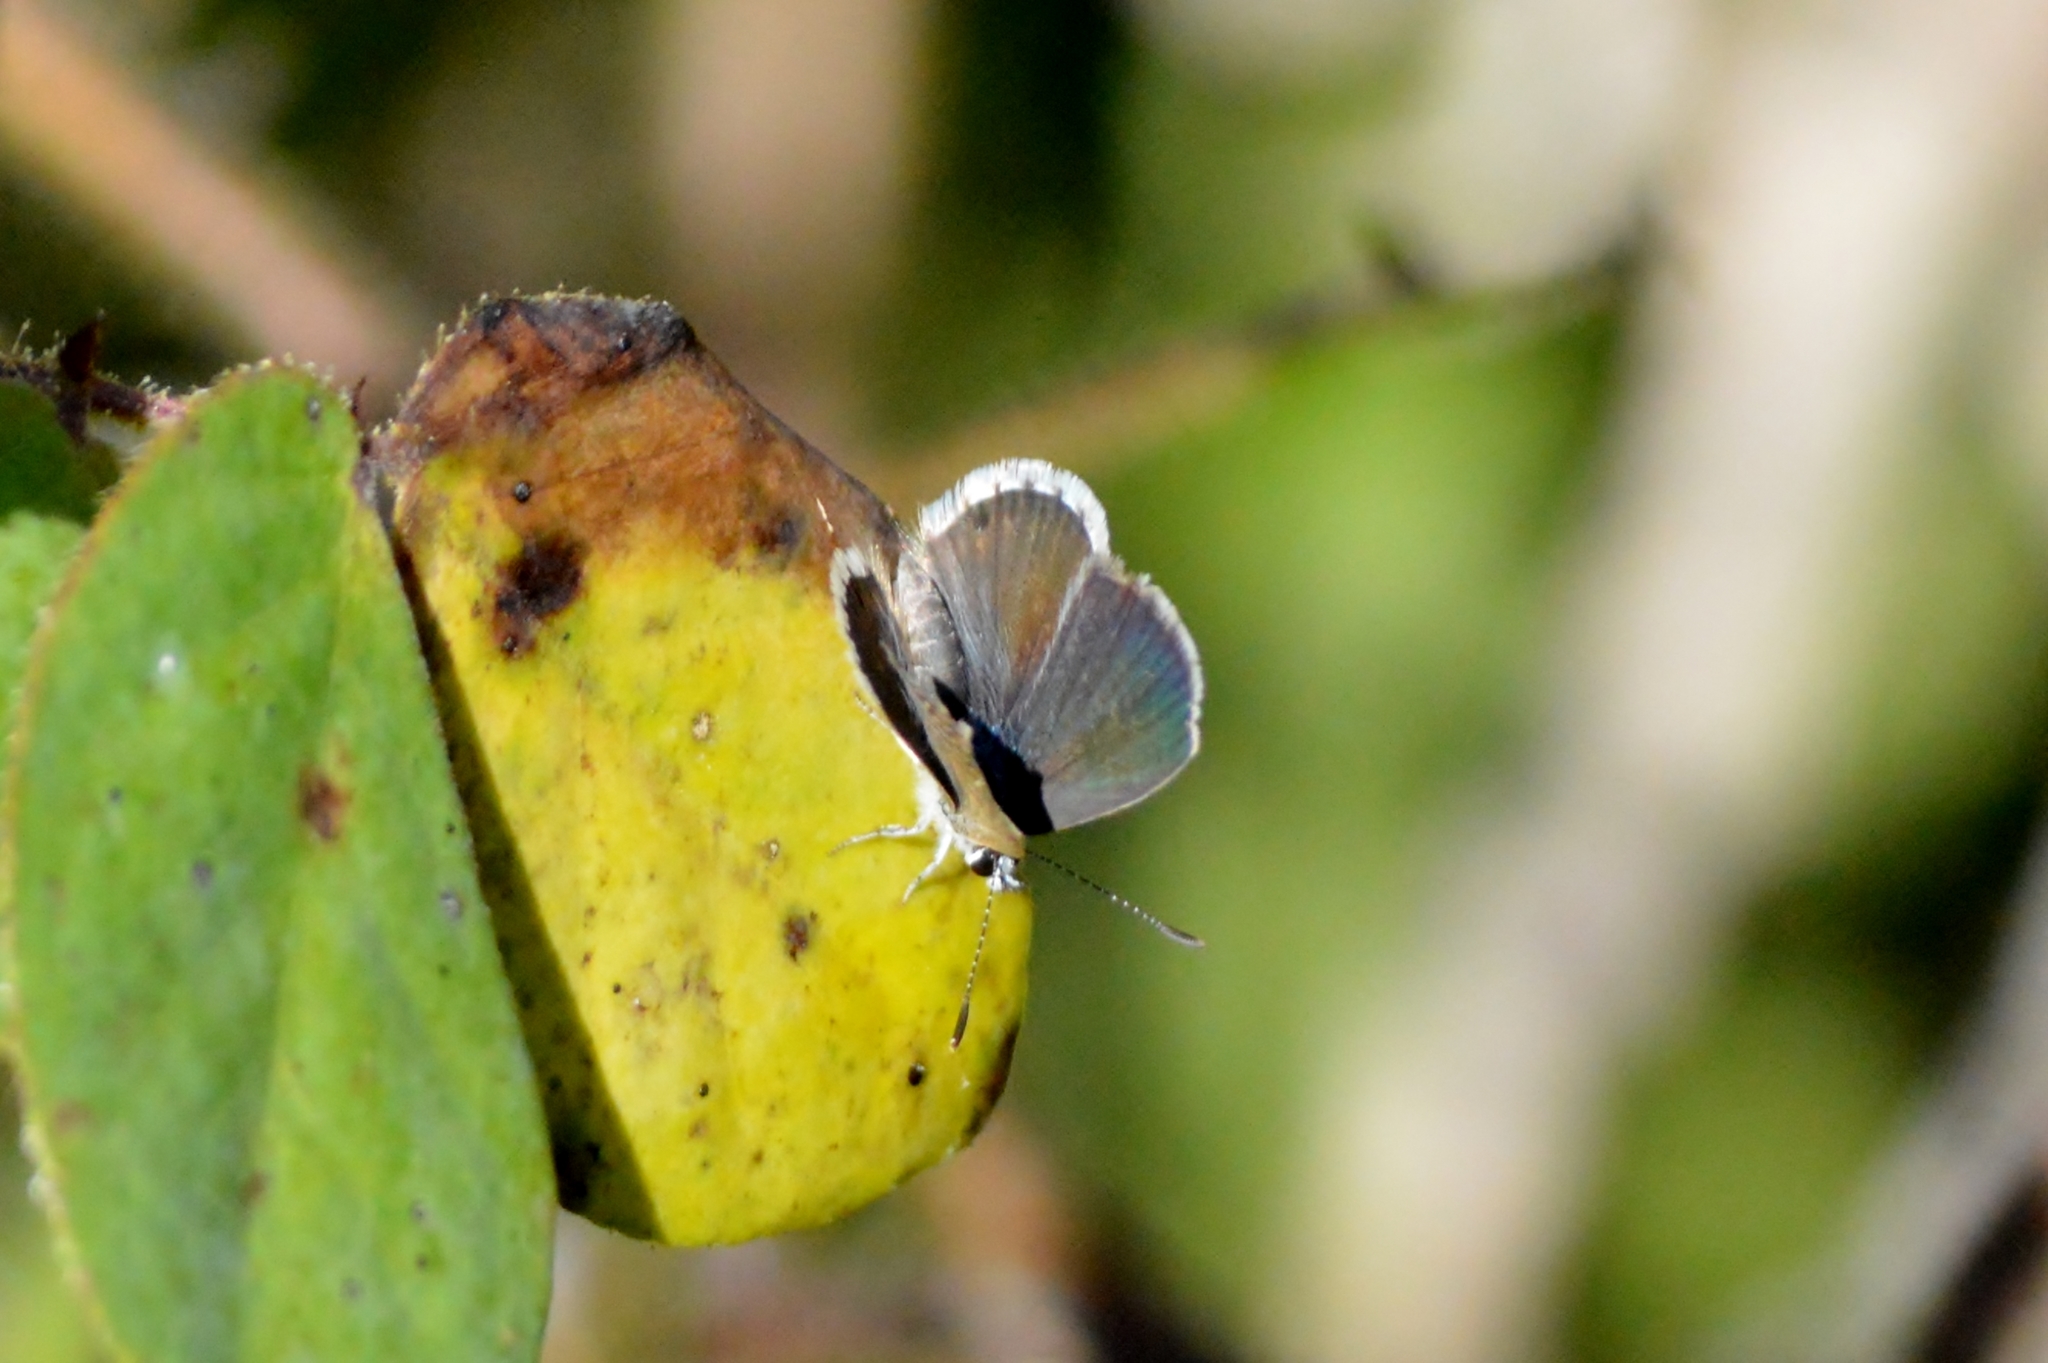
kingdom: Animalia
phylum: Arthropoda
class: Insecta
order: Lepidoptera
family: Lycaenidae
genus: Hemiargus
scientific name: Hemiargus hanno
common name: Common blue
